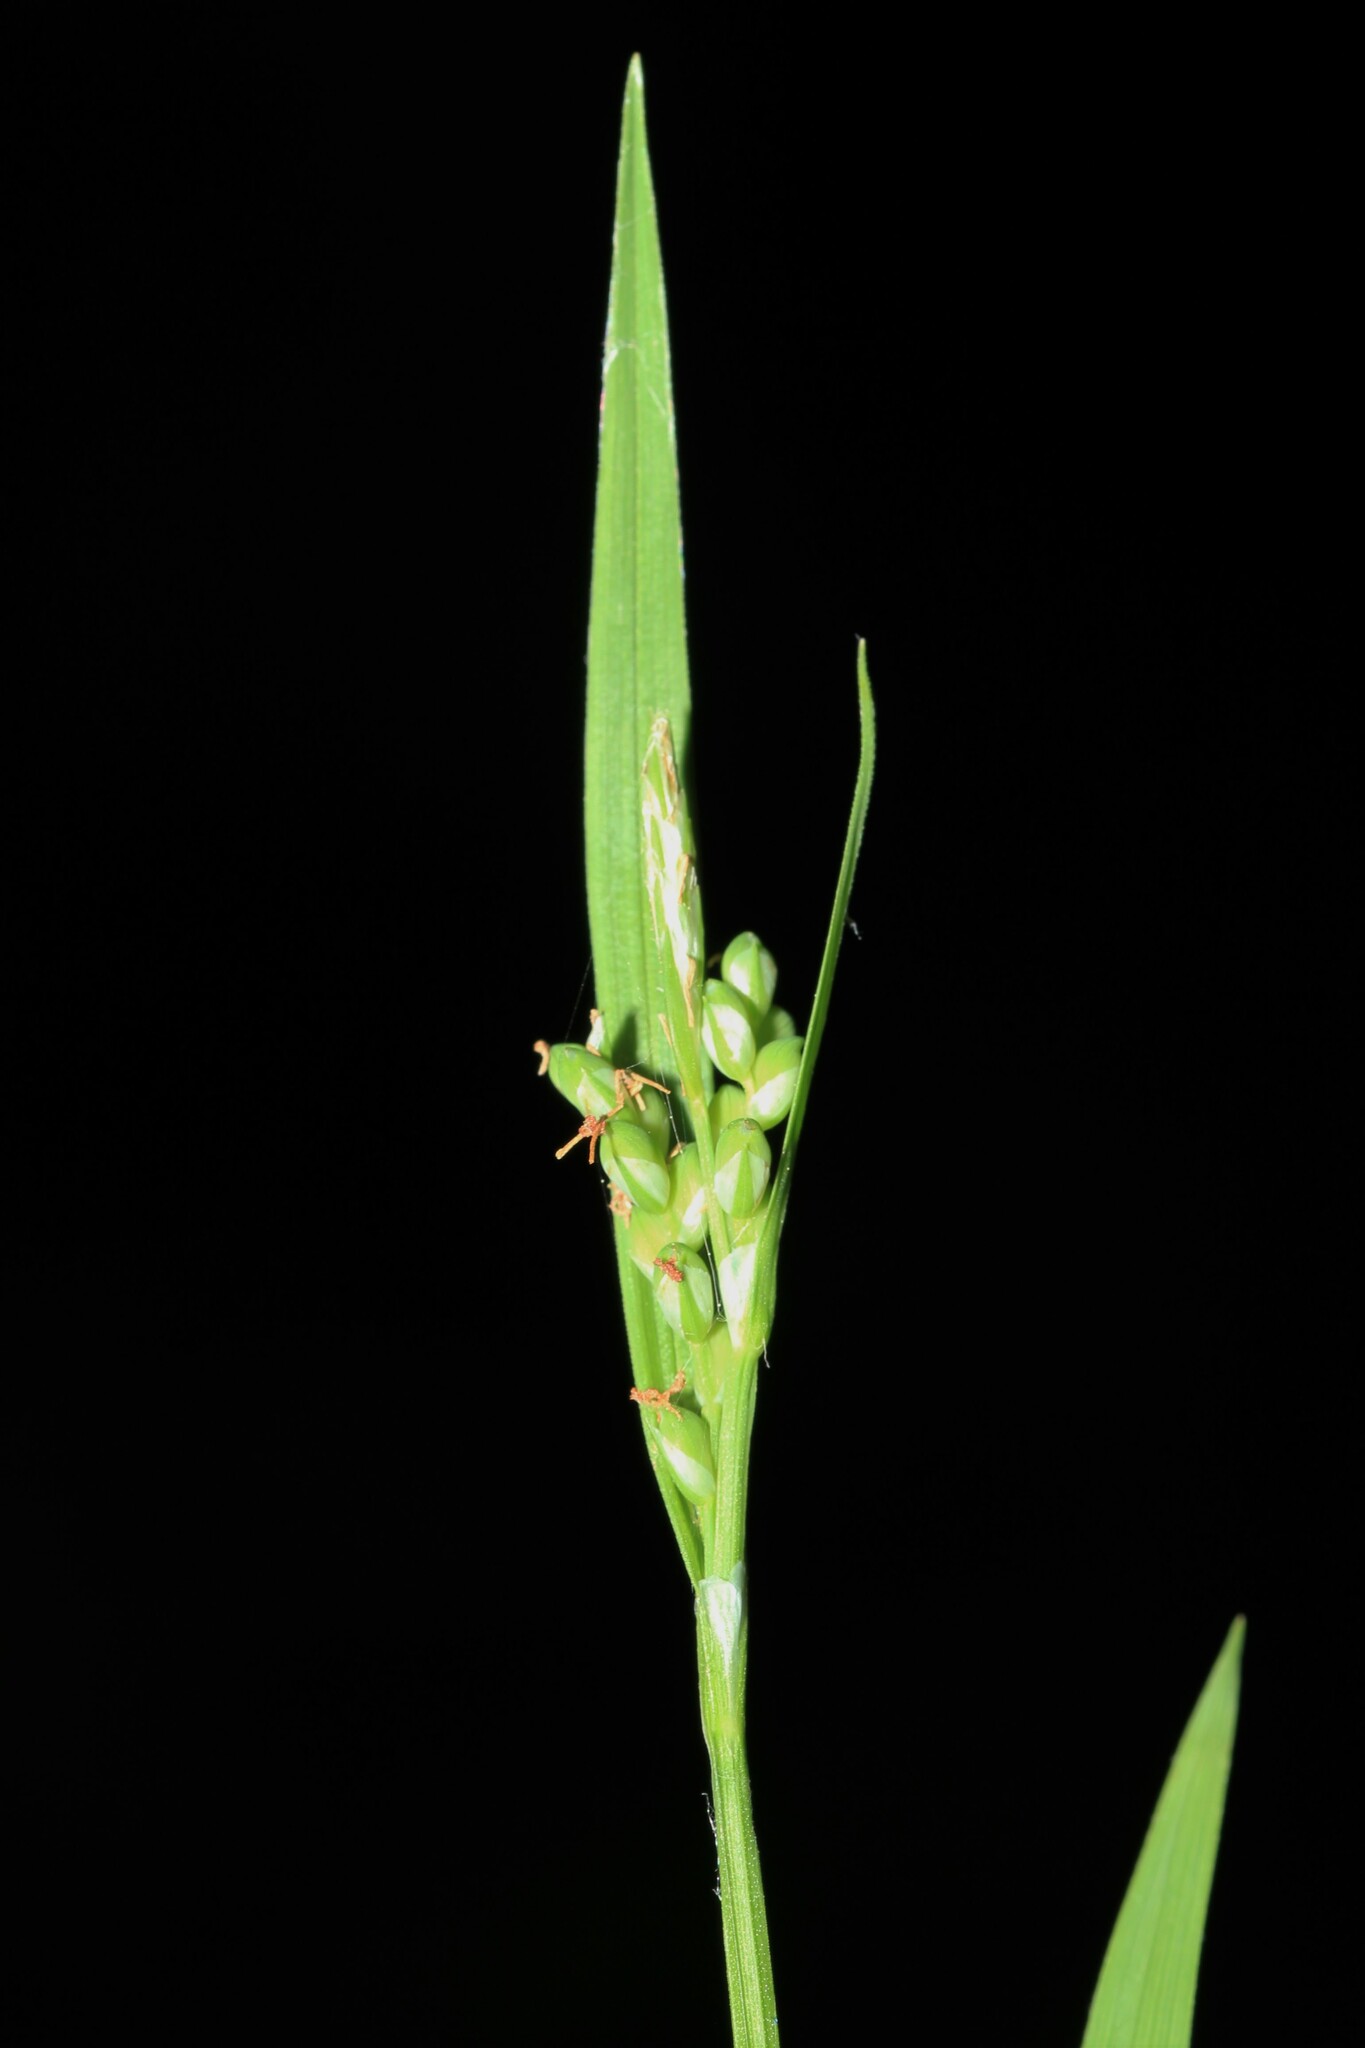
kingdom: Plantae
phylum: Tracheophyta
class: Liliopsida
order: Poales
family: Cyperaceae
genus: Carex
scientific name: Carex ormostachya
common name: Necklace spike sedge
